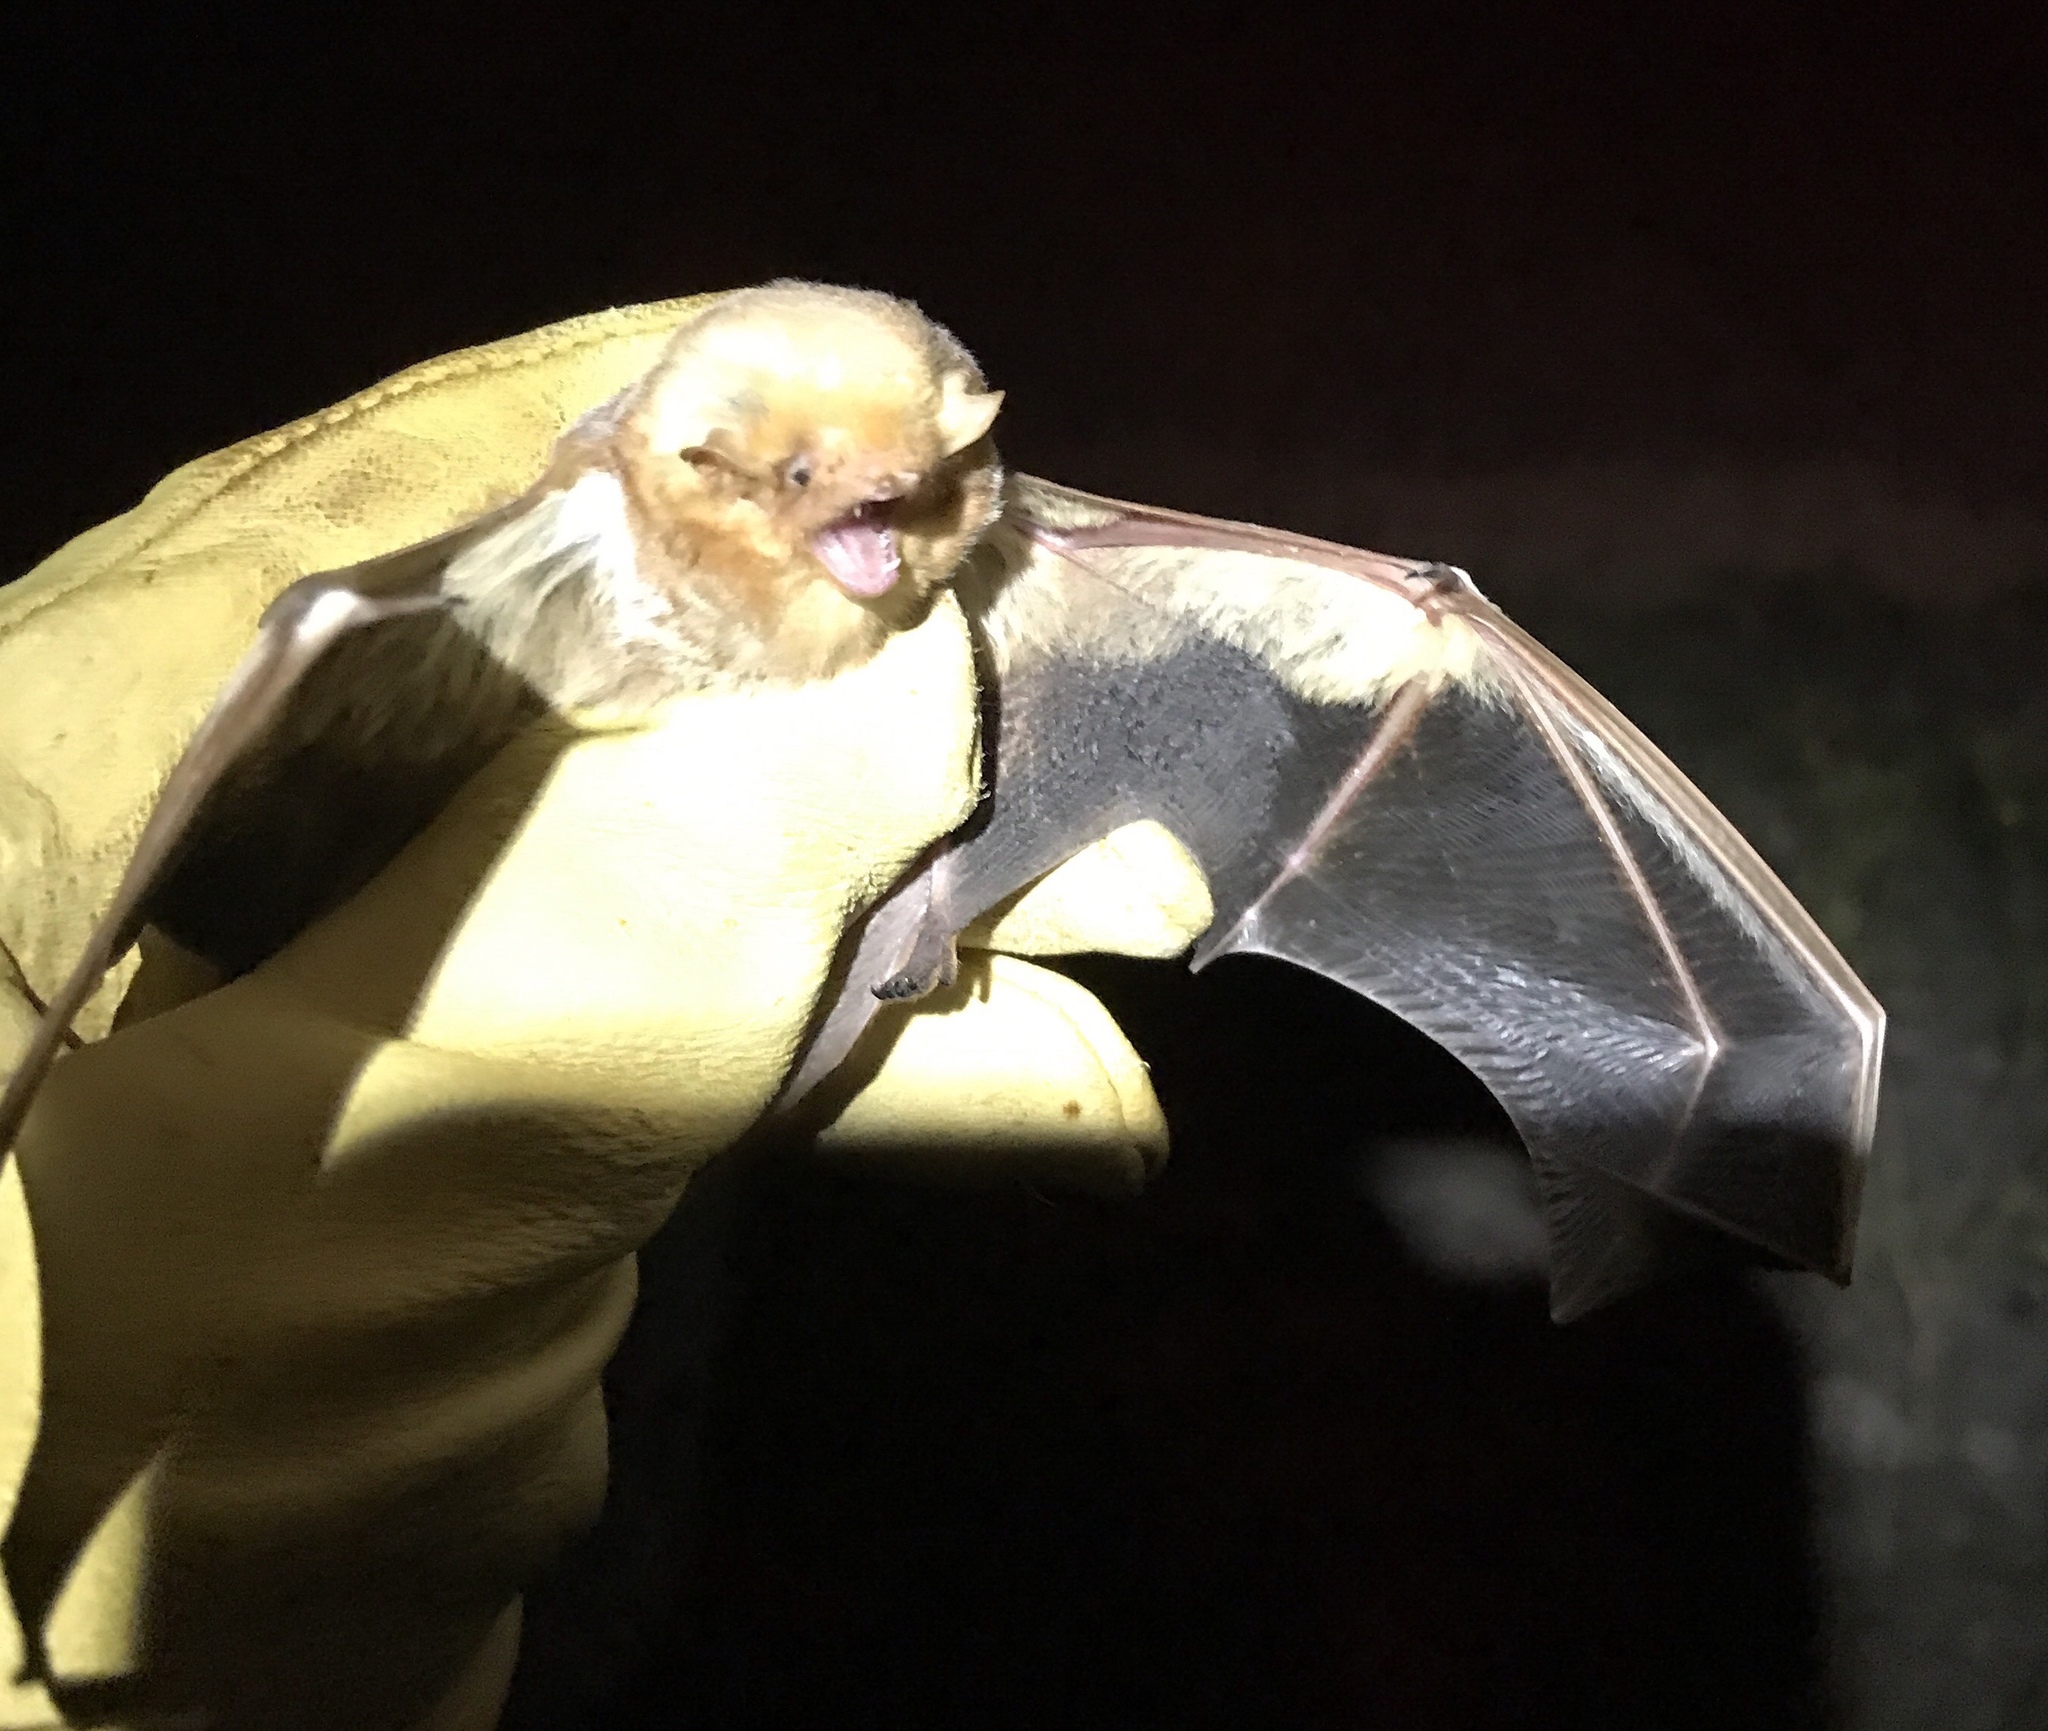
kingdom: Animalia
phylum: Chordata
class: Mammalia
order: Chiroptera
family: Vespertilionidae
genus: Lasiurus
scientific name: Lasiurus borealis
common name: Eastern red bat
